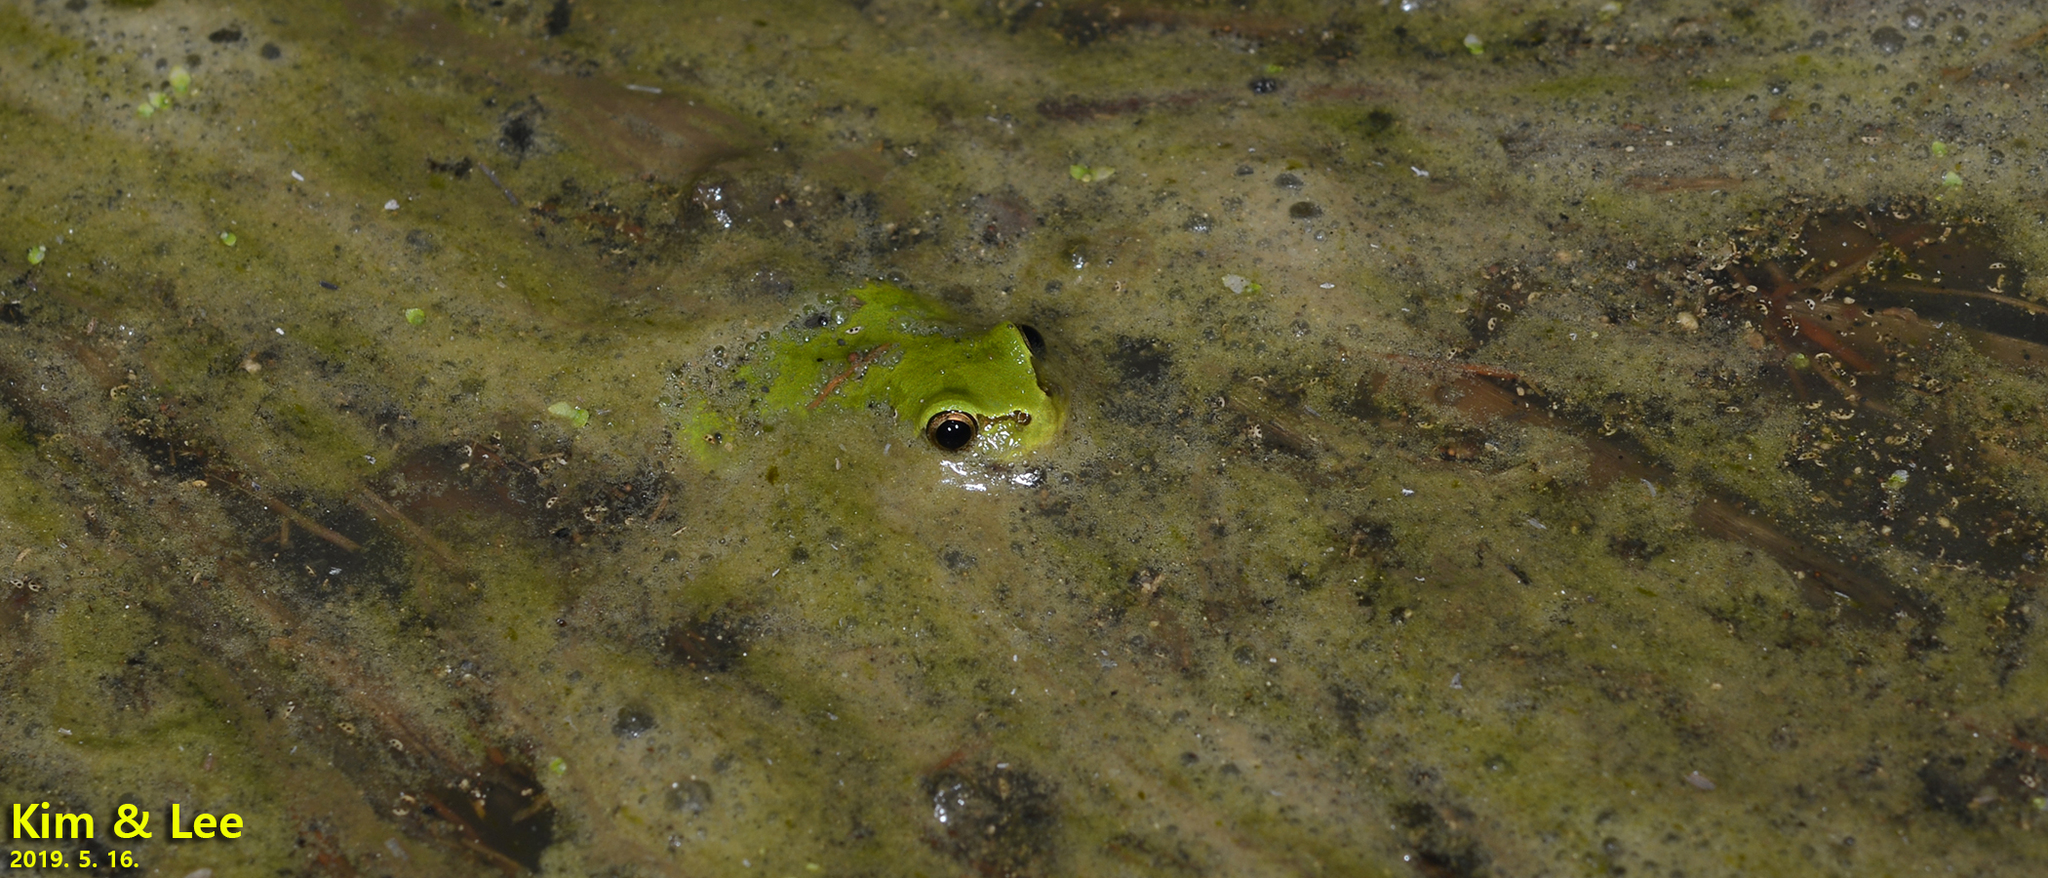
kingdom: Animalia
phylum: Chordata
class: Amphibia
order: Anura
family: Hylidae
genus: Dryophytes
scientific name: Dryophytes japonicus
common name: Japanese treefrog
